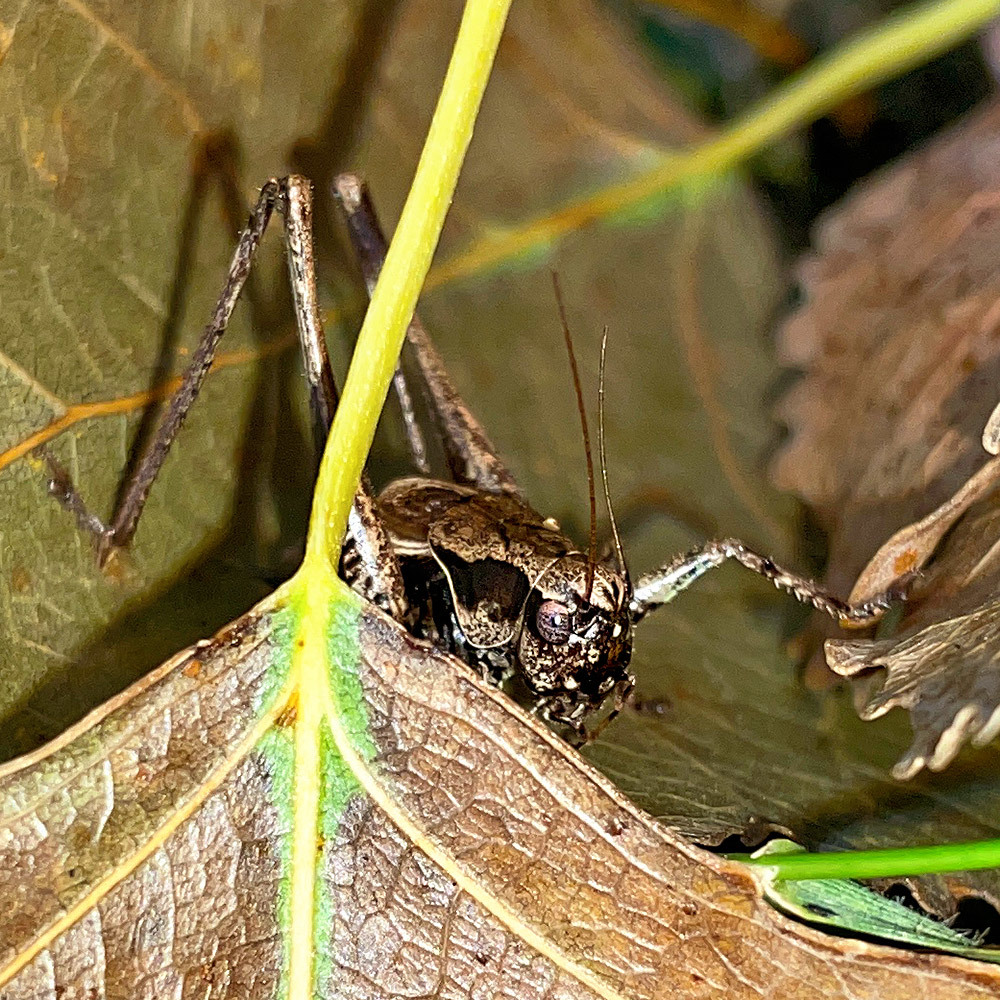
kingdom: Animalia
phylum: Arthropoda
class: Insecta
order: Orthoptera
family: Tettigoniidae
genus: Pholidoptera
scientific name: Pholidoptera griseoaptera
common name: Dark bush-cricket
